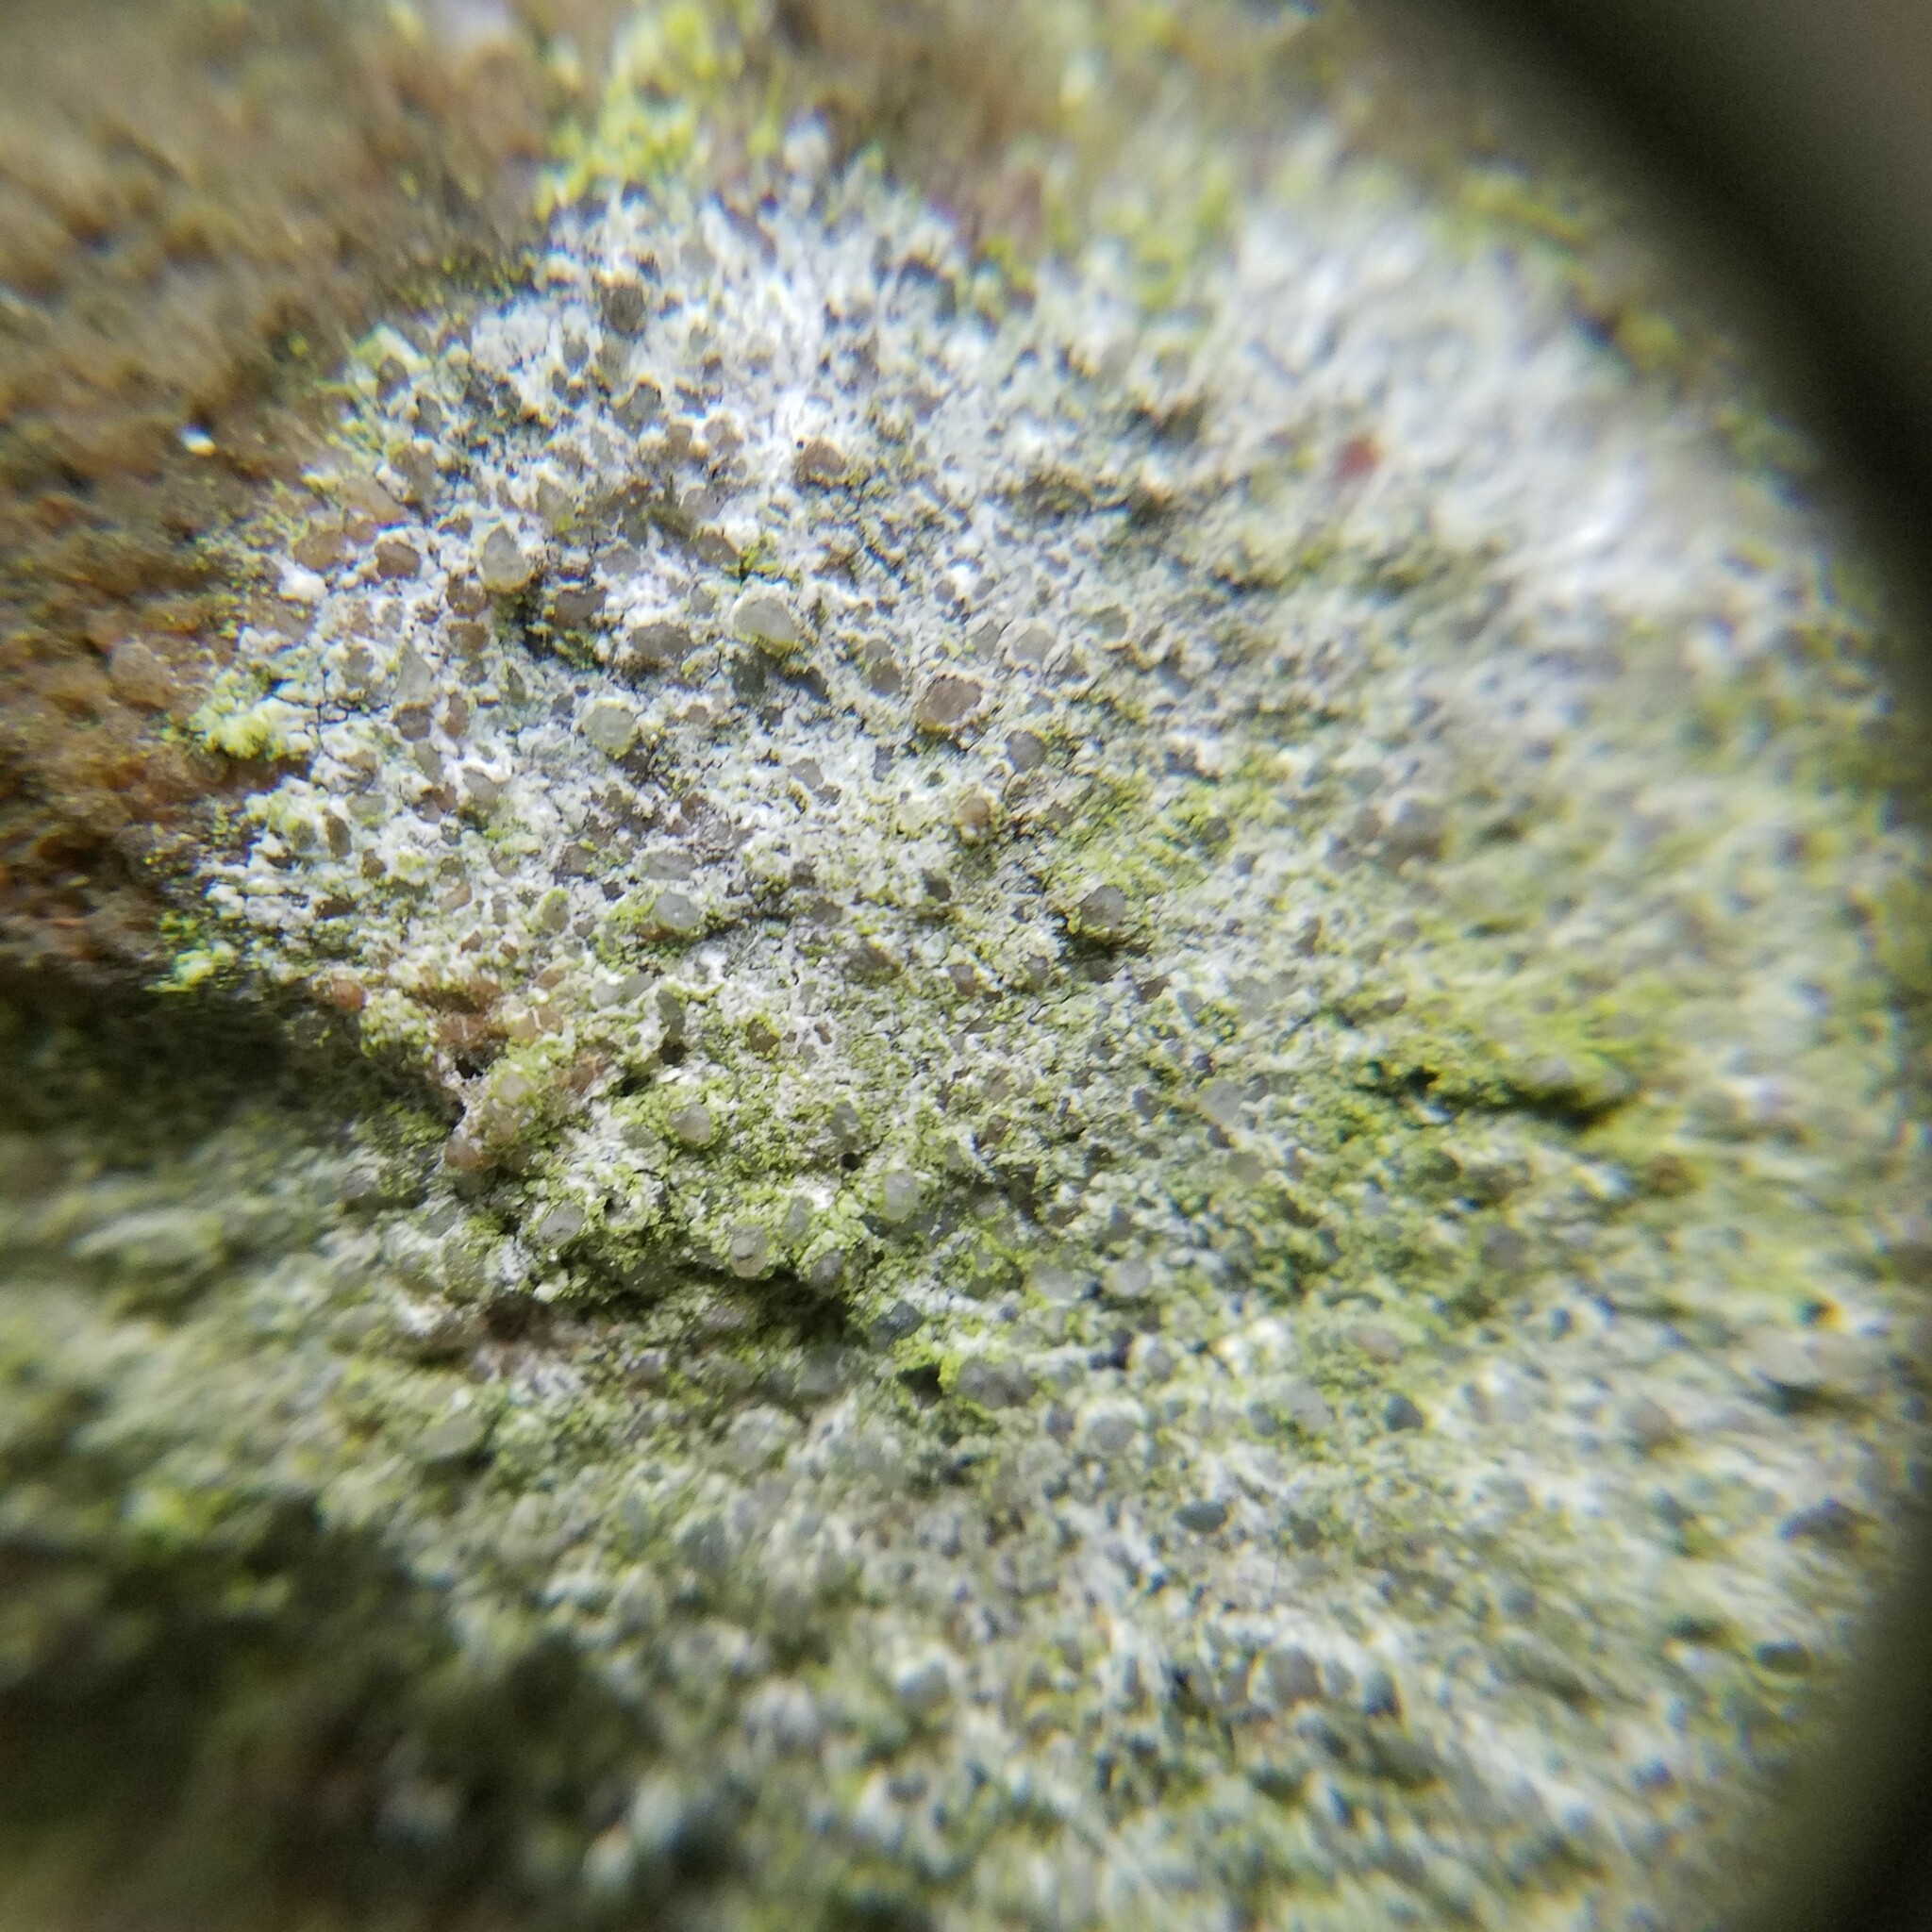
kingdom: Fungi
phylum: Ascomycota
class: Lecanoromycetes
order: Lecanorales
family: Psilolechiaceae
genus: Psilolechia
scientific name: Psilolechia lucida
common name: Sulphur dust lichen
